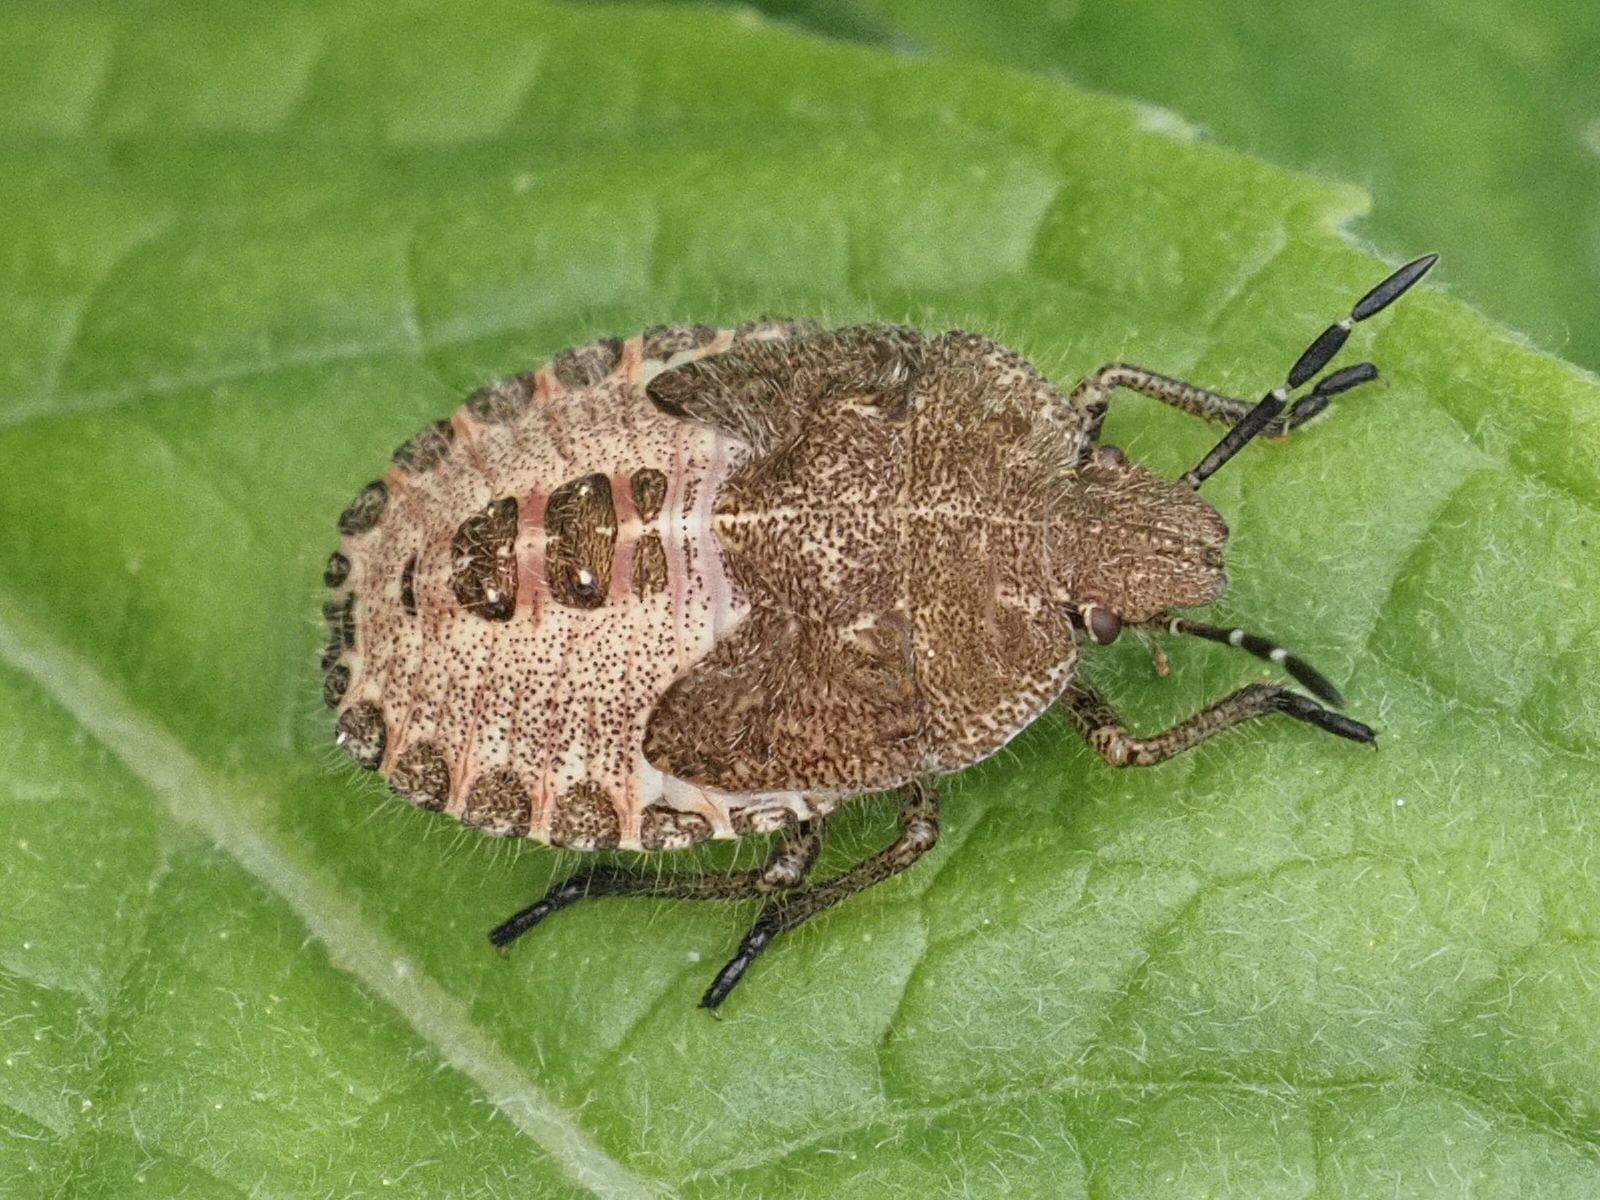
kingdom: Animalia
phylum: Arthropoda
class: Insecta
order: Hemiptera
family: Pentatomidae
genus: Dolycoris
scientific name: Dolycoris baccarum
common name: Sloe bug
